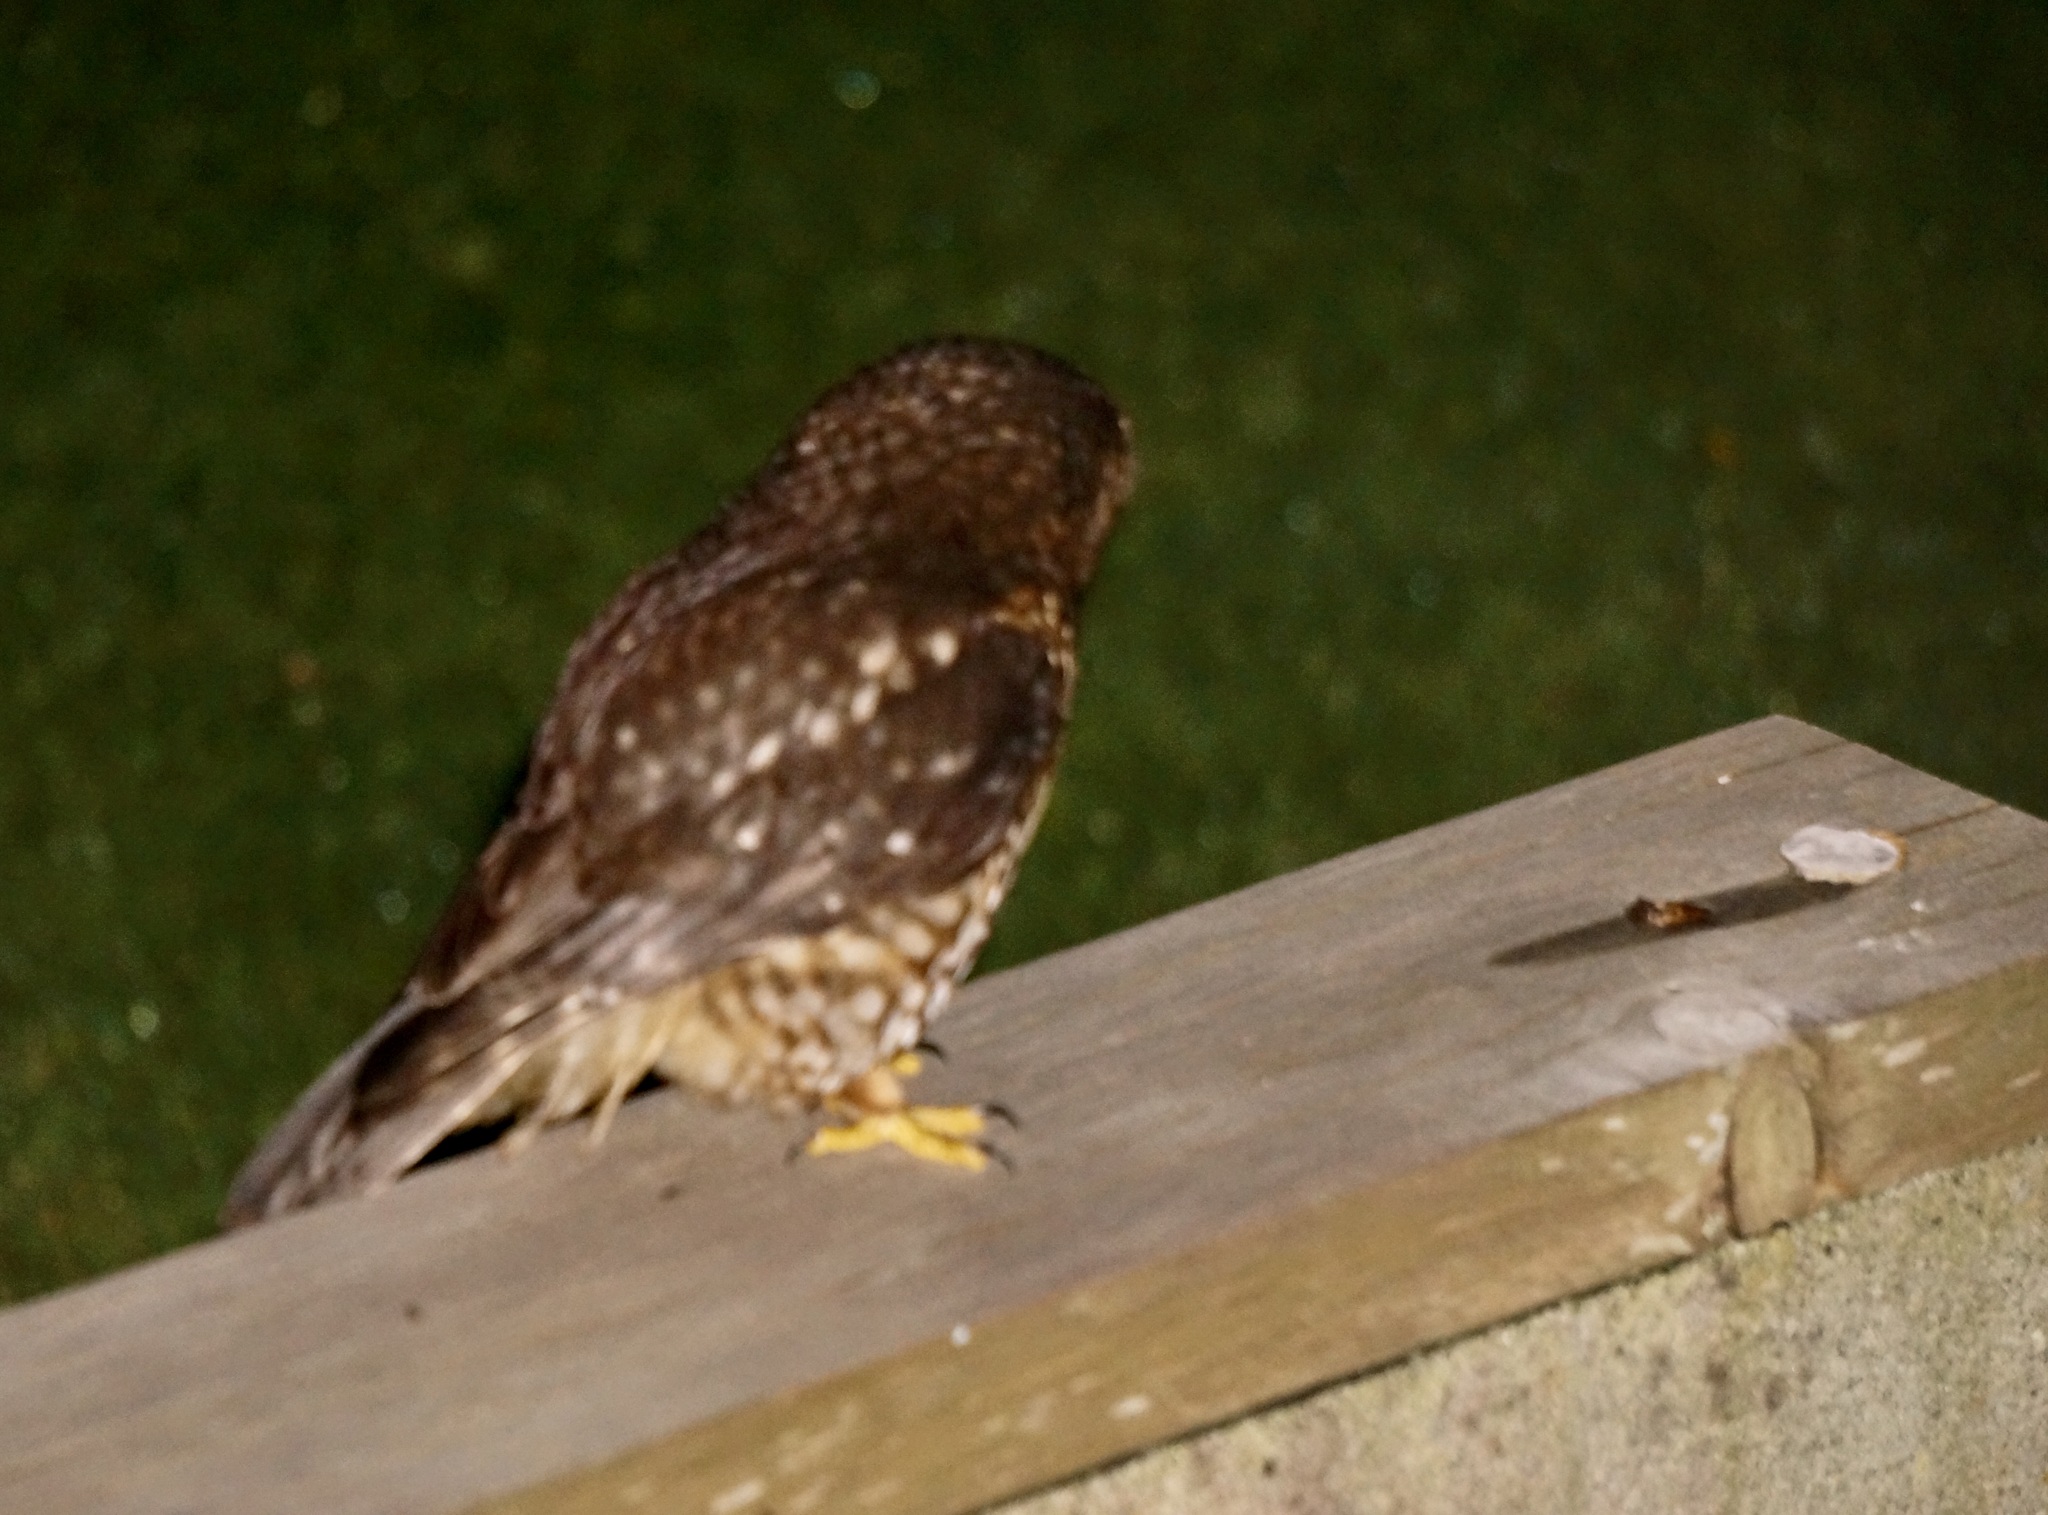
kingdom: Animalia
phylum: Chordata
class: Aves
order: Strigiformes
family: Strigidae
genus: Ninox
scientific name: Ninox novaeseelandiae
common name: Morepork
